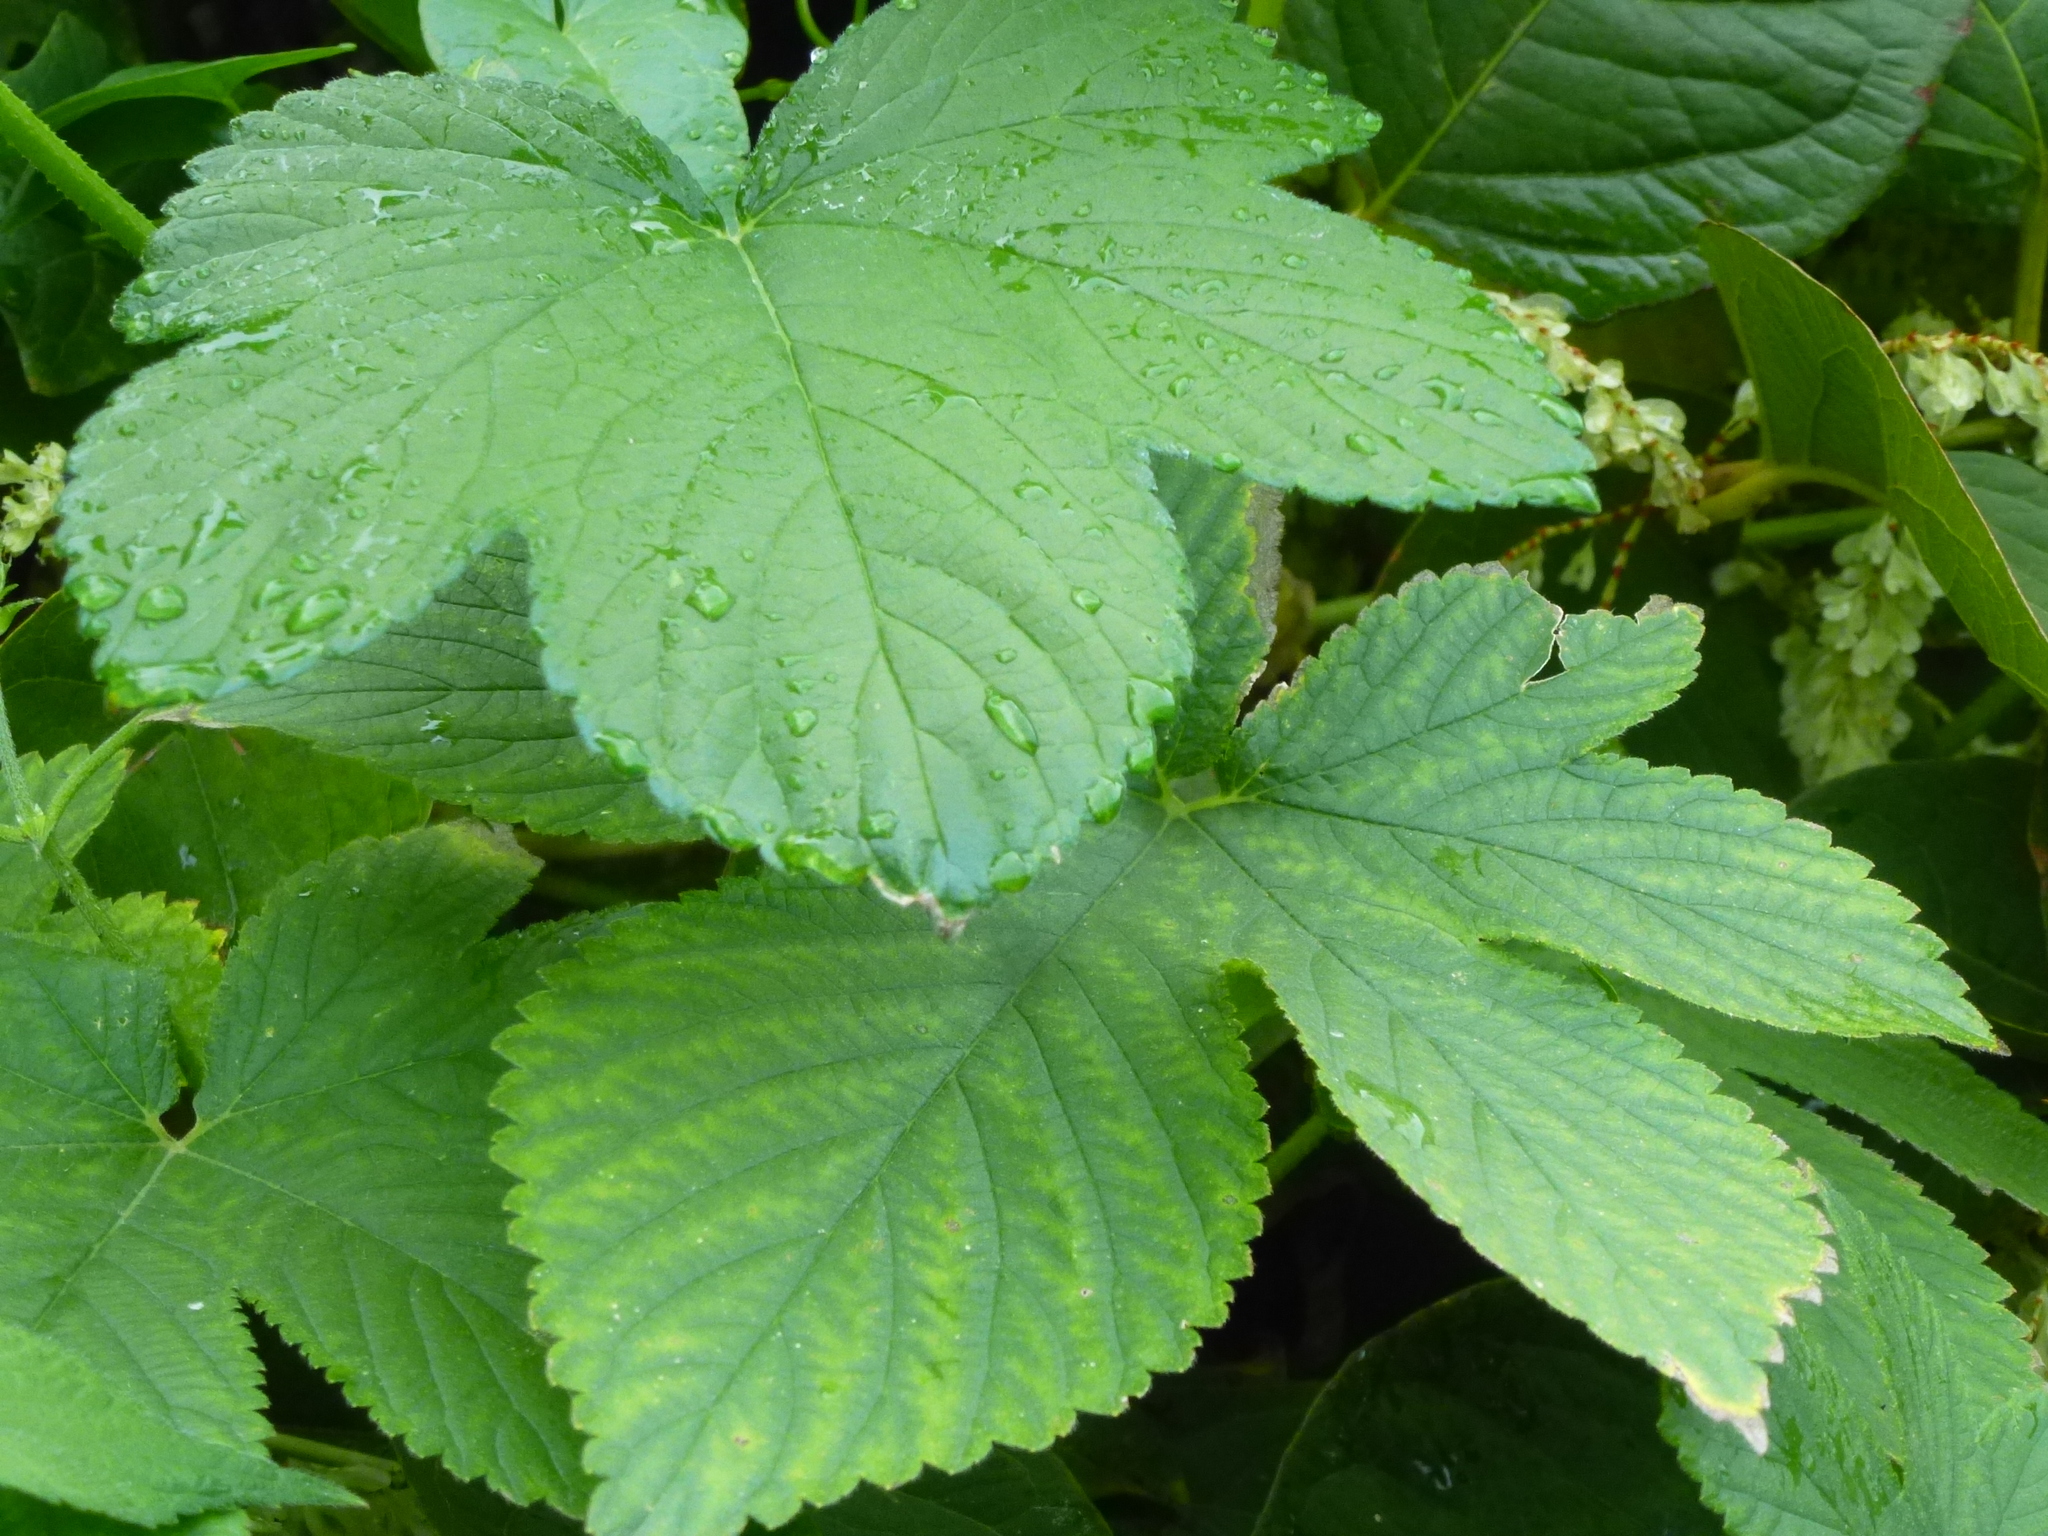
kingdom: Plantae
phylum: Tracheophyta
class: Magnoliopsida
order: Rosales
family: Cannabaceae
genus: Humulus
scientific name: Humulus scandens
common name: Japanese hop
